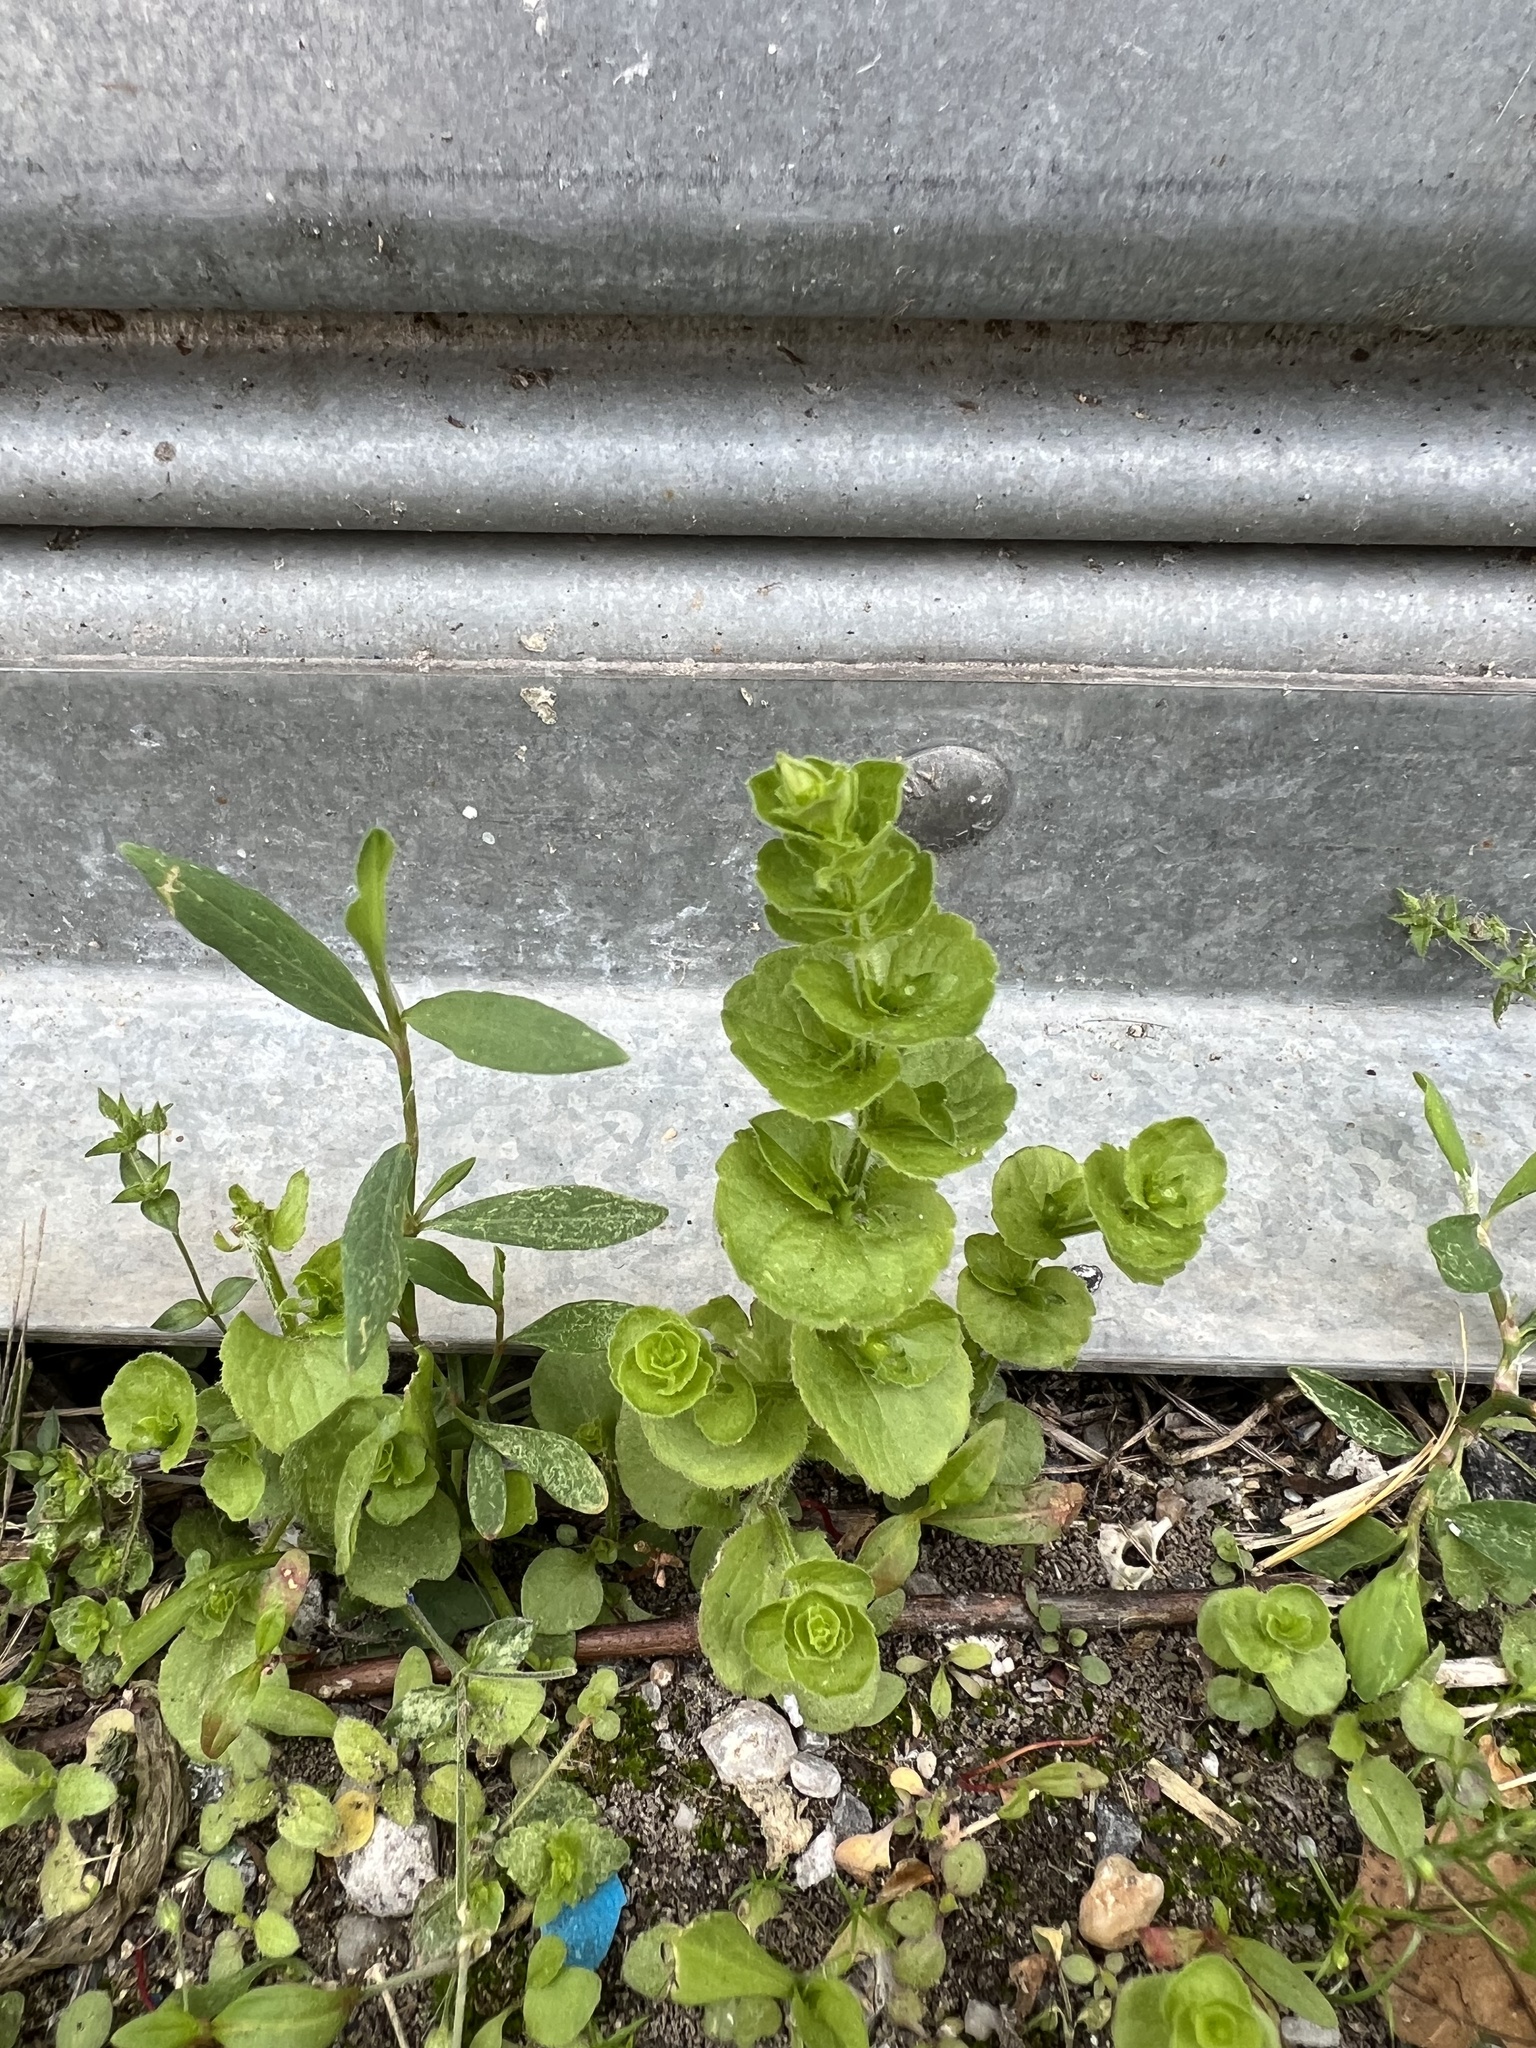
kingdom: Plantae
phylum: Tracheophyta
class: Magnoliopsida
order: Asterales
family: Campanulaceae
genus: Triodanis
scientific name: Triodanis perfoliata
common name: Clasping venus' looking-glass
